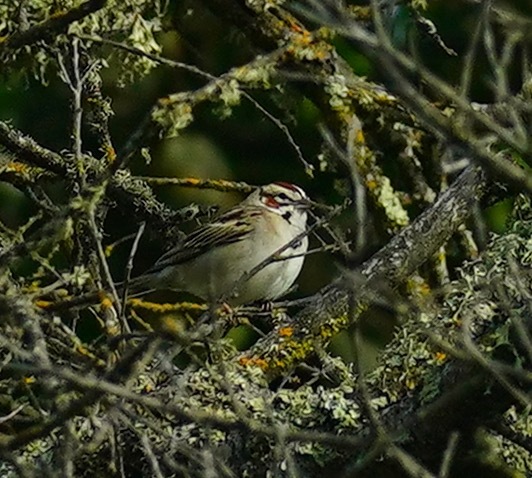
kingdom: Animalia
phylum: Chordata
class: Aves
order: Passeriformes
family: Passerellidae
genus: Chondestes
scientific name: Chondestes grammacus
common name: Lark sparrow
